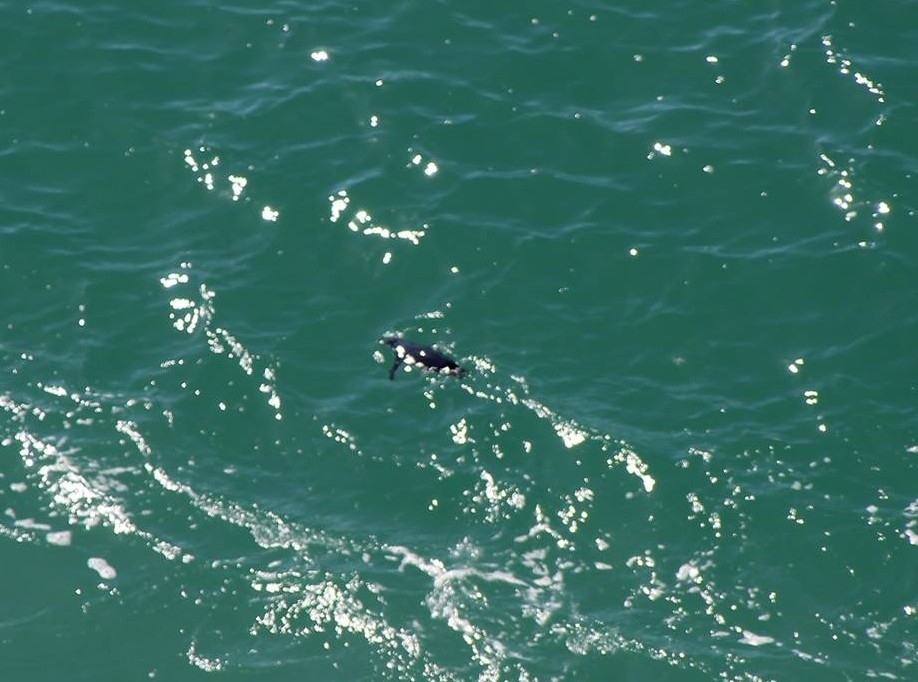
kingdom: Animalia
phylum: Chordata
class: Aves
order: Sphenisciformes
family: Spheniscidae
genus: Eudyptula
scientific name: Eudyptula minor
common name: Little penguin
